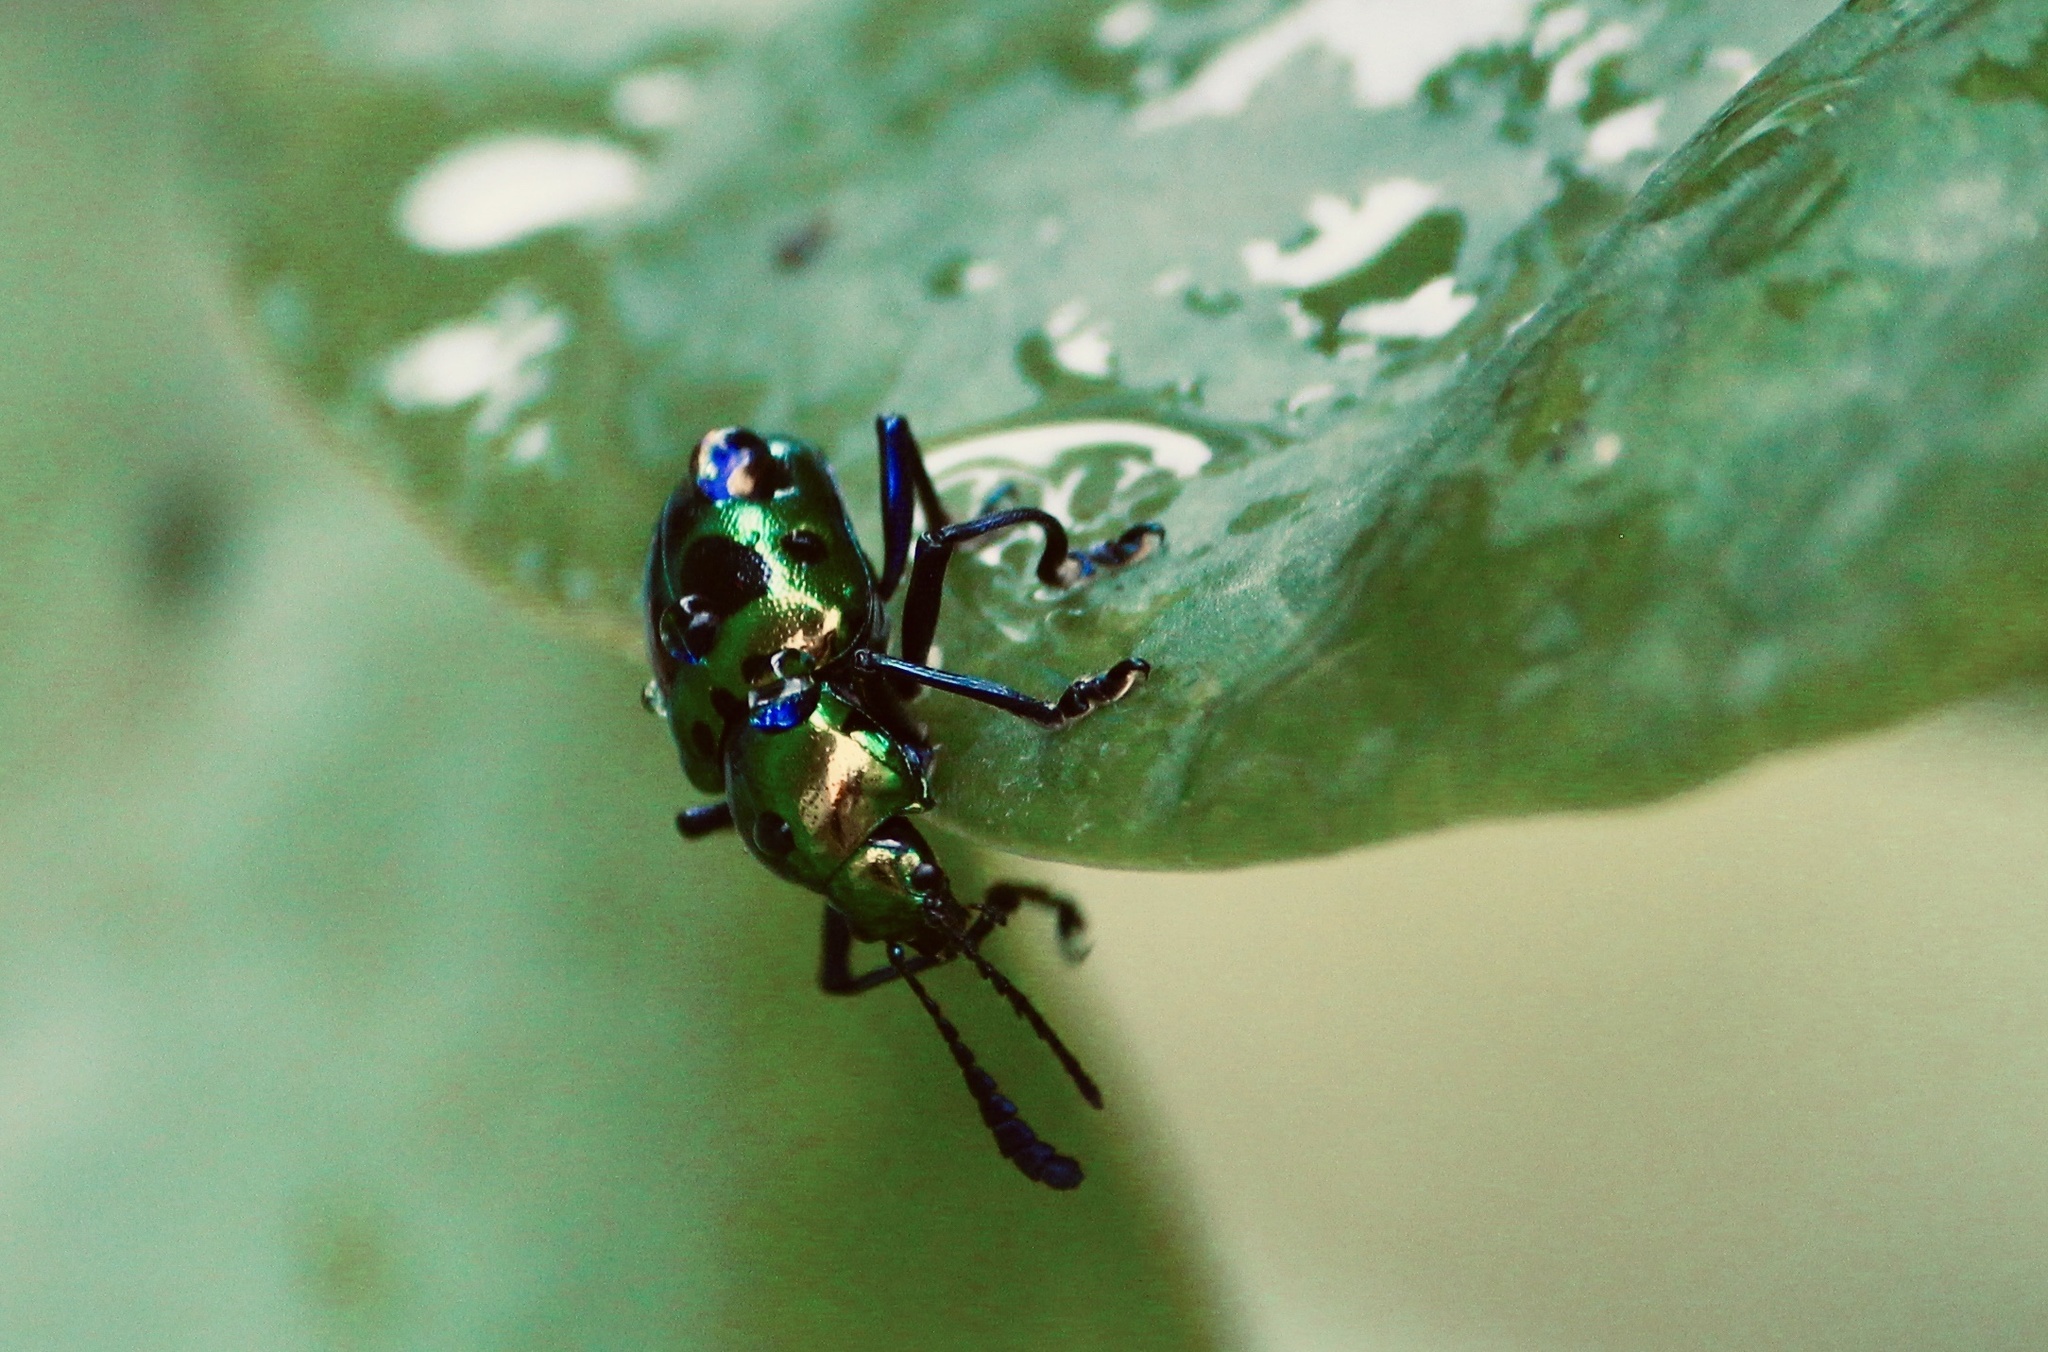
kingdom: Animalia
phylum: Arthropoda
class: Insecta
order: Coleoptera
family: Chrysomelidae
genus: Platycorynus
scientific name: Platycorynus
